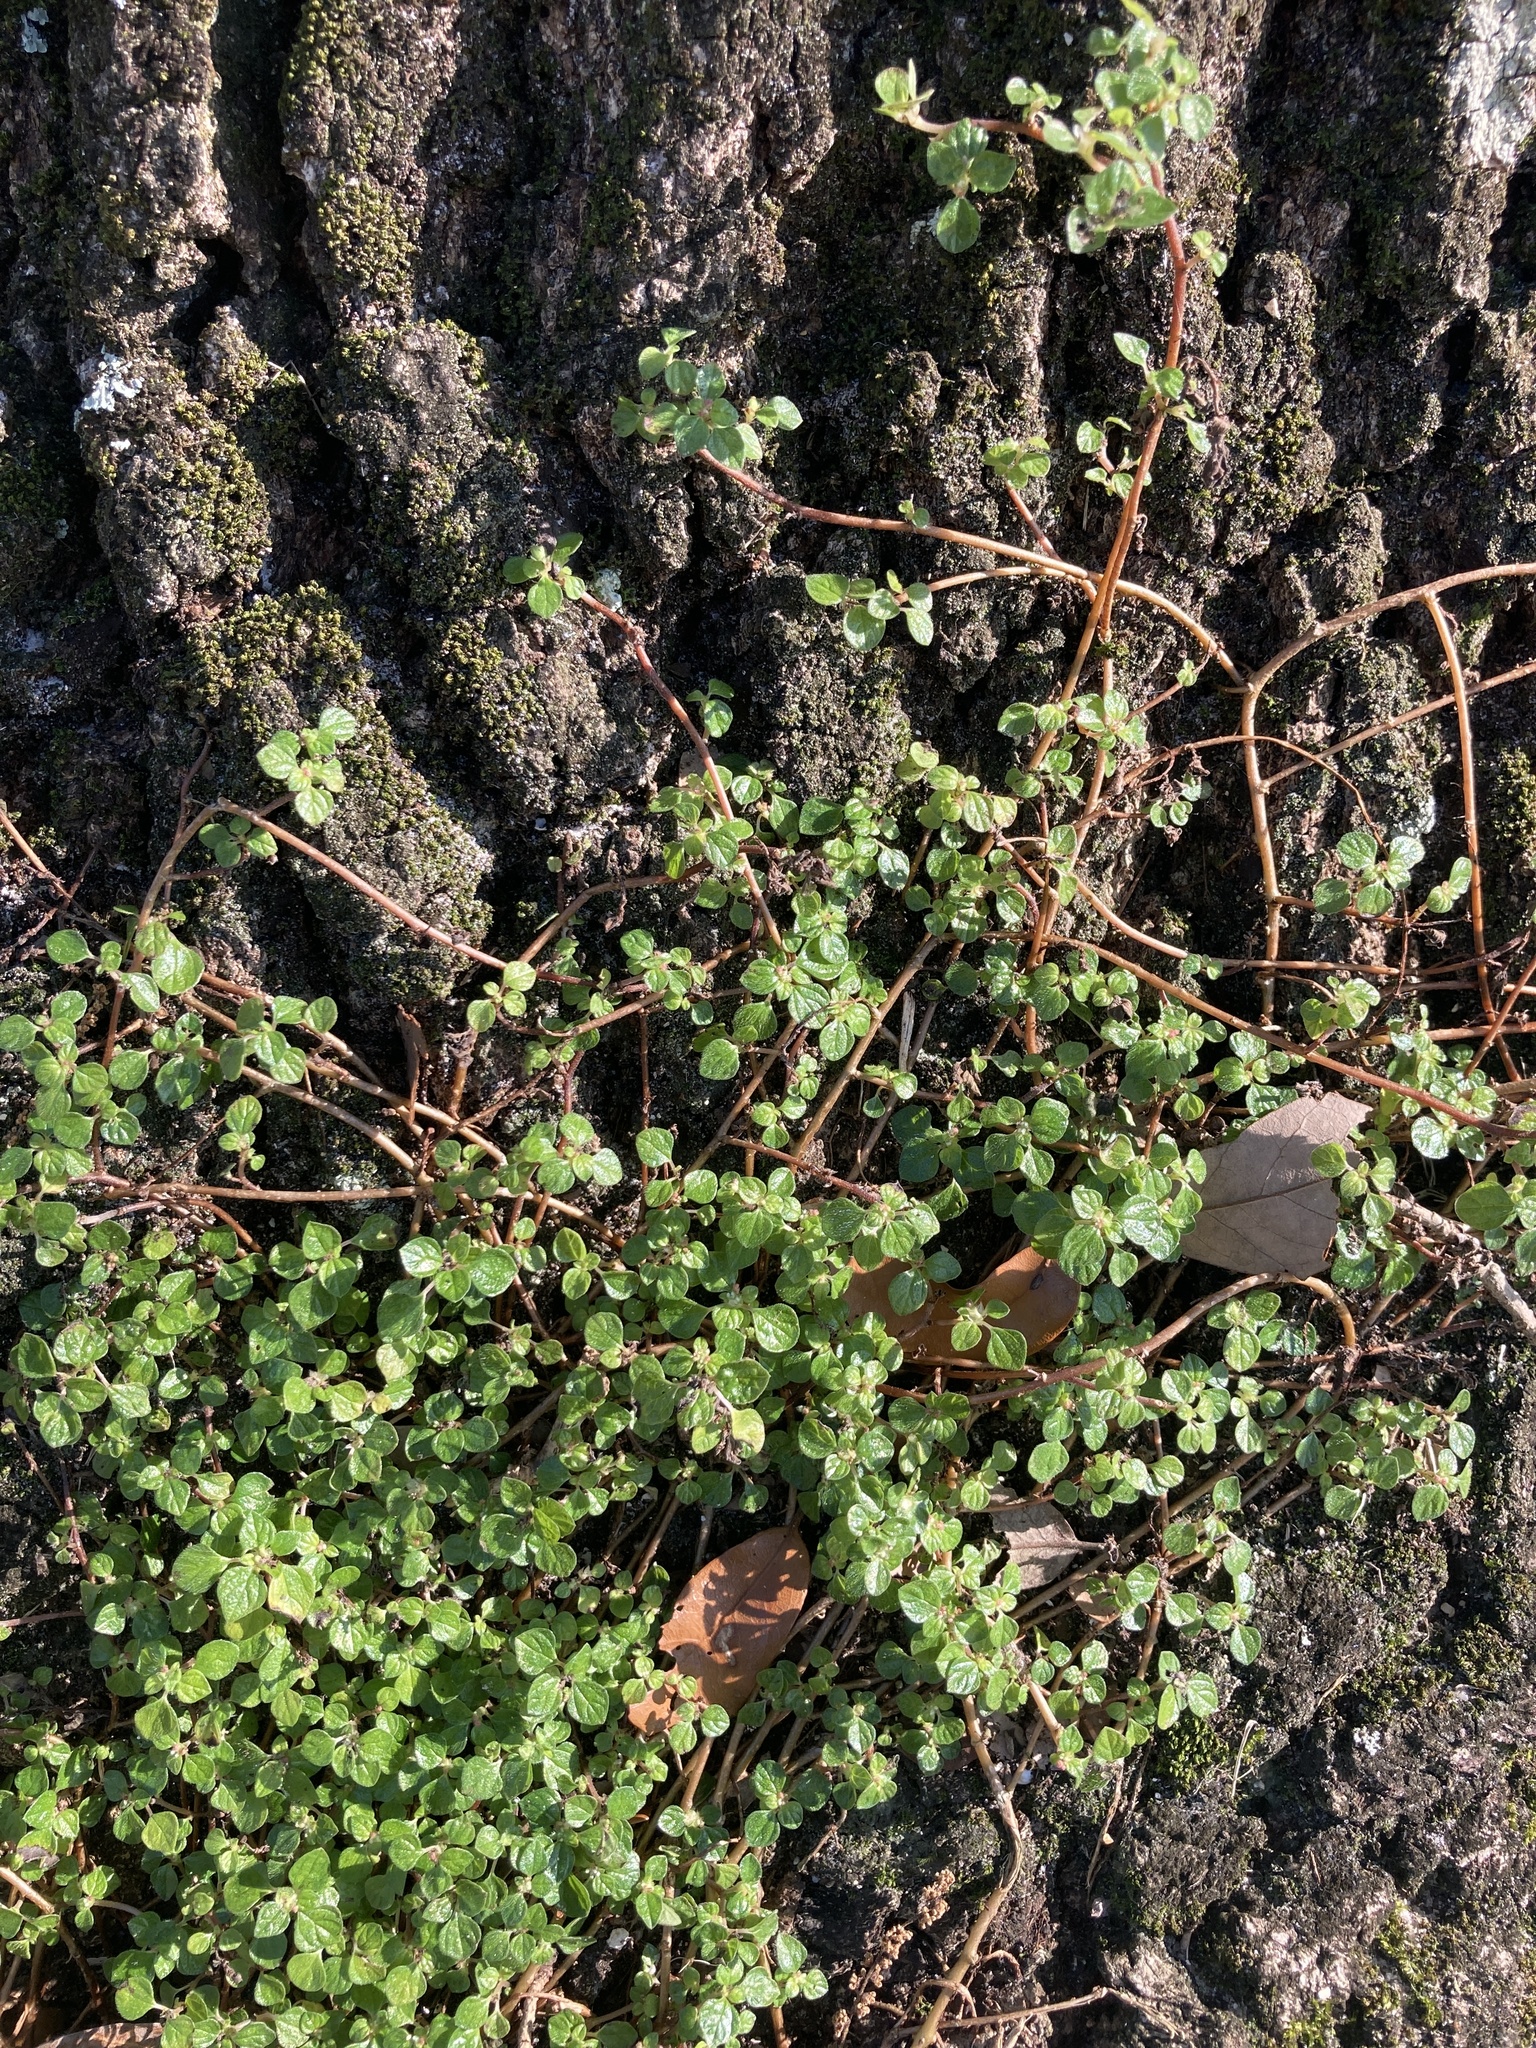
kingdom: Plantae
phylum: Tracheophyta
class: Magnoliopsida
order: Rosales
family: Urticaceae
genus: Rousselia
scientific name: Rousselia humilis
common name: Shineseed
